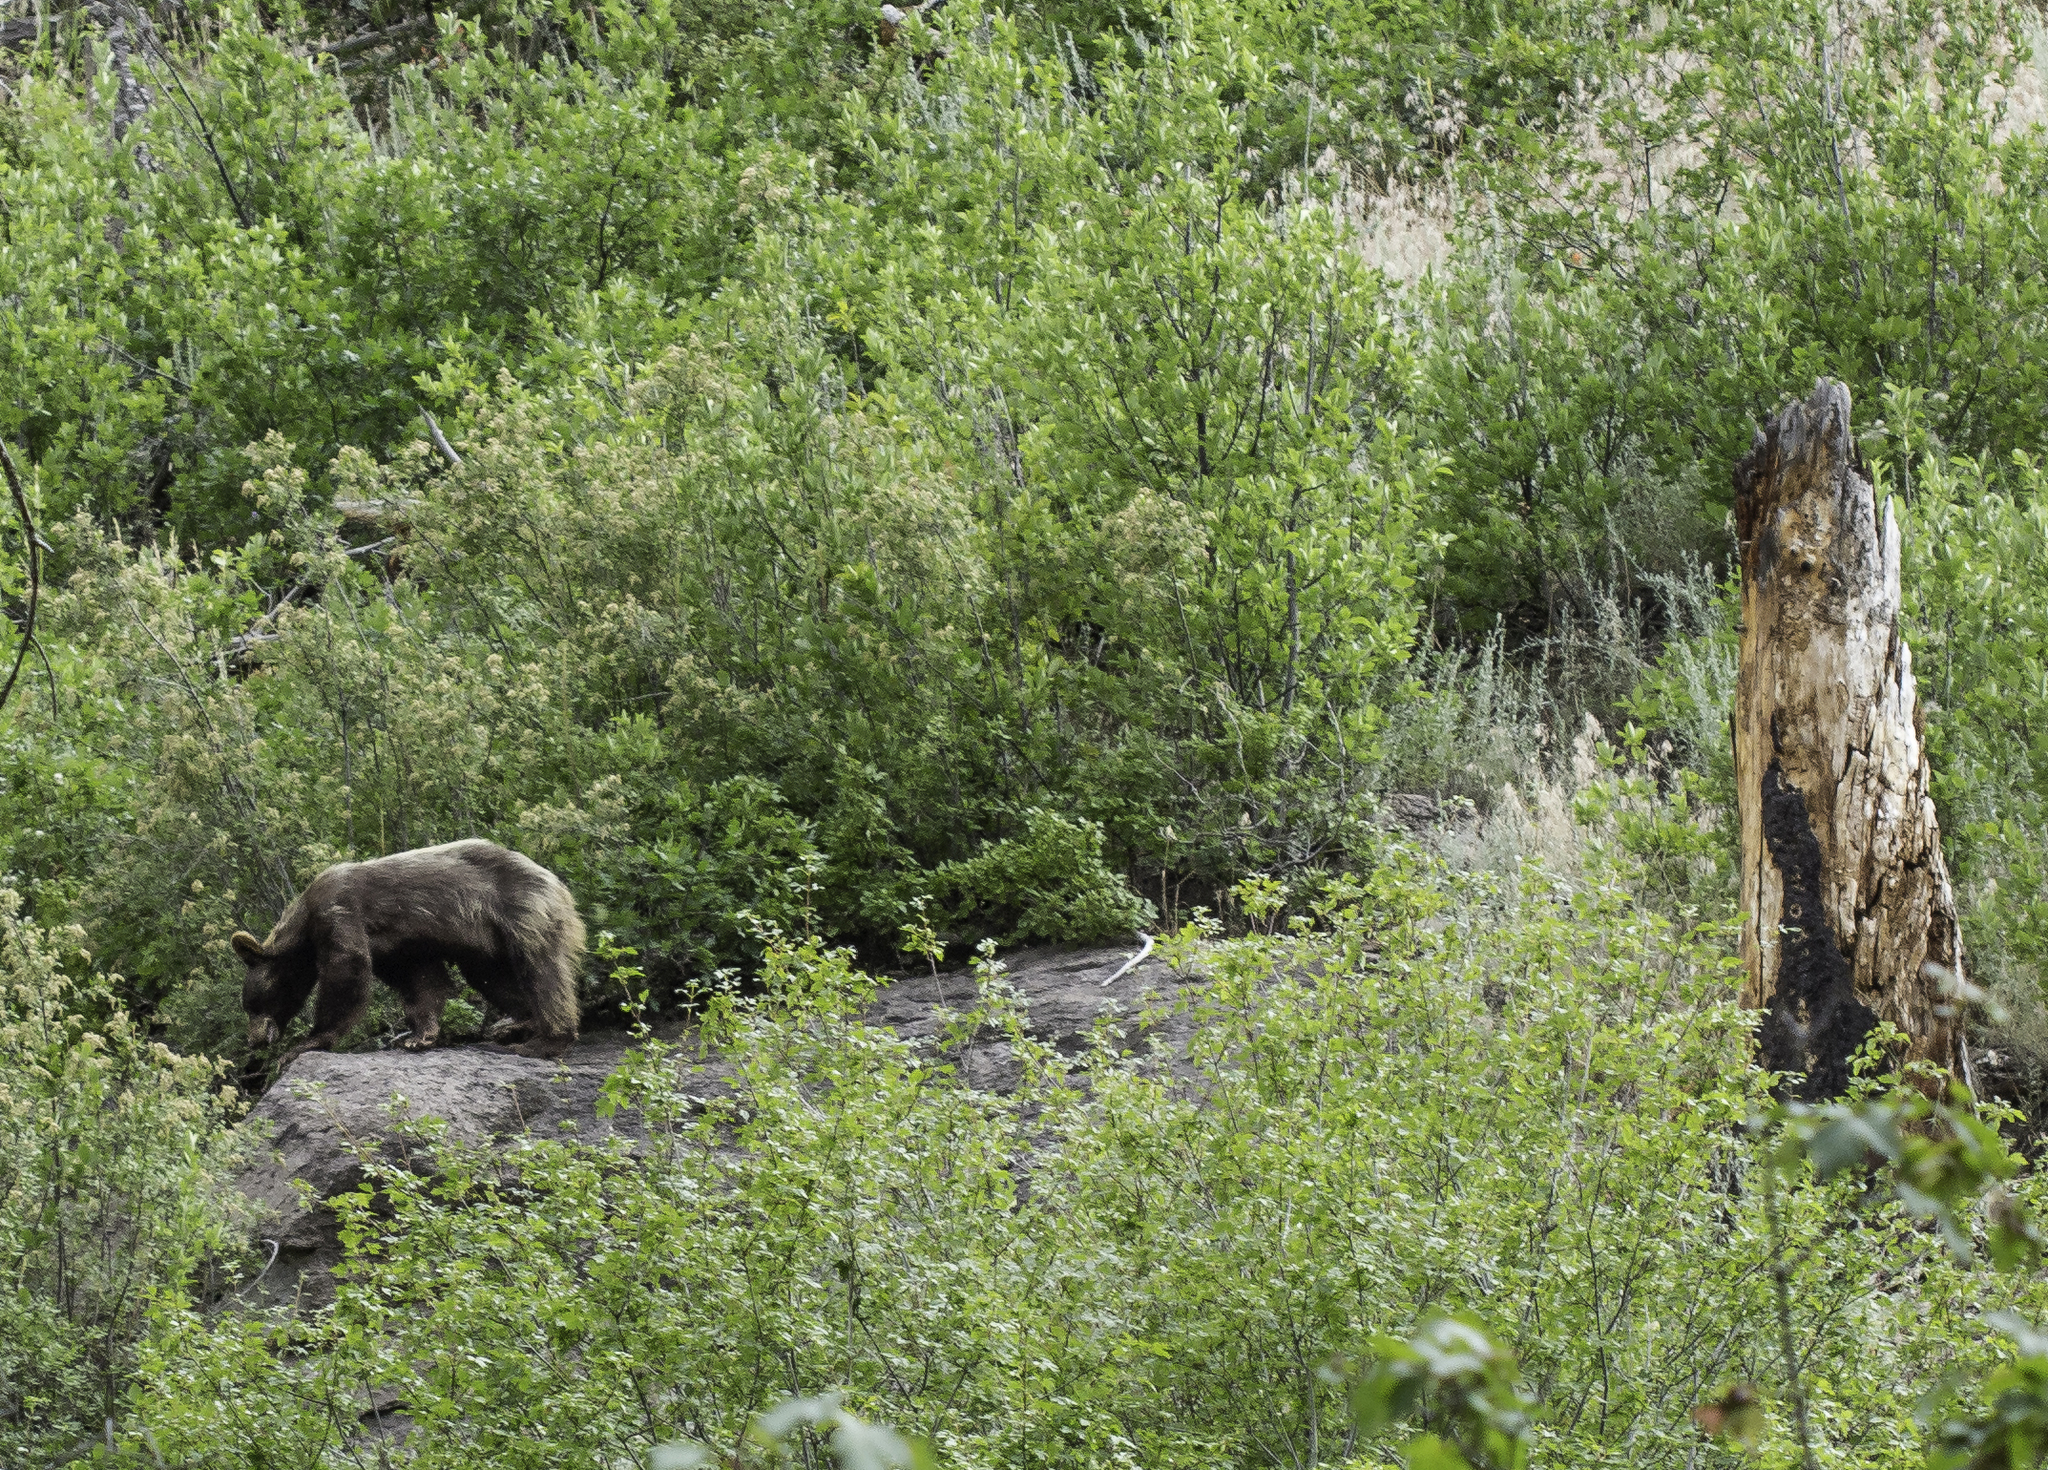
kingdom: Animalia
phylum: Chordata
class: Mammalia
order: Carnivora
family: Ursidae
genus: Ursus
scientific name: Ursus americanus
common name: American black bear
